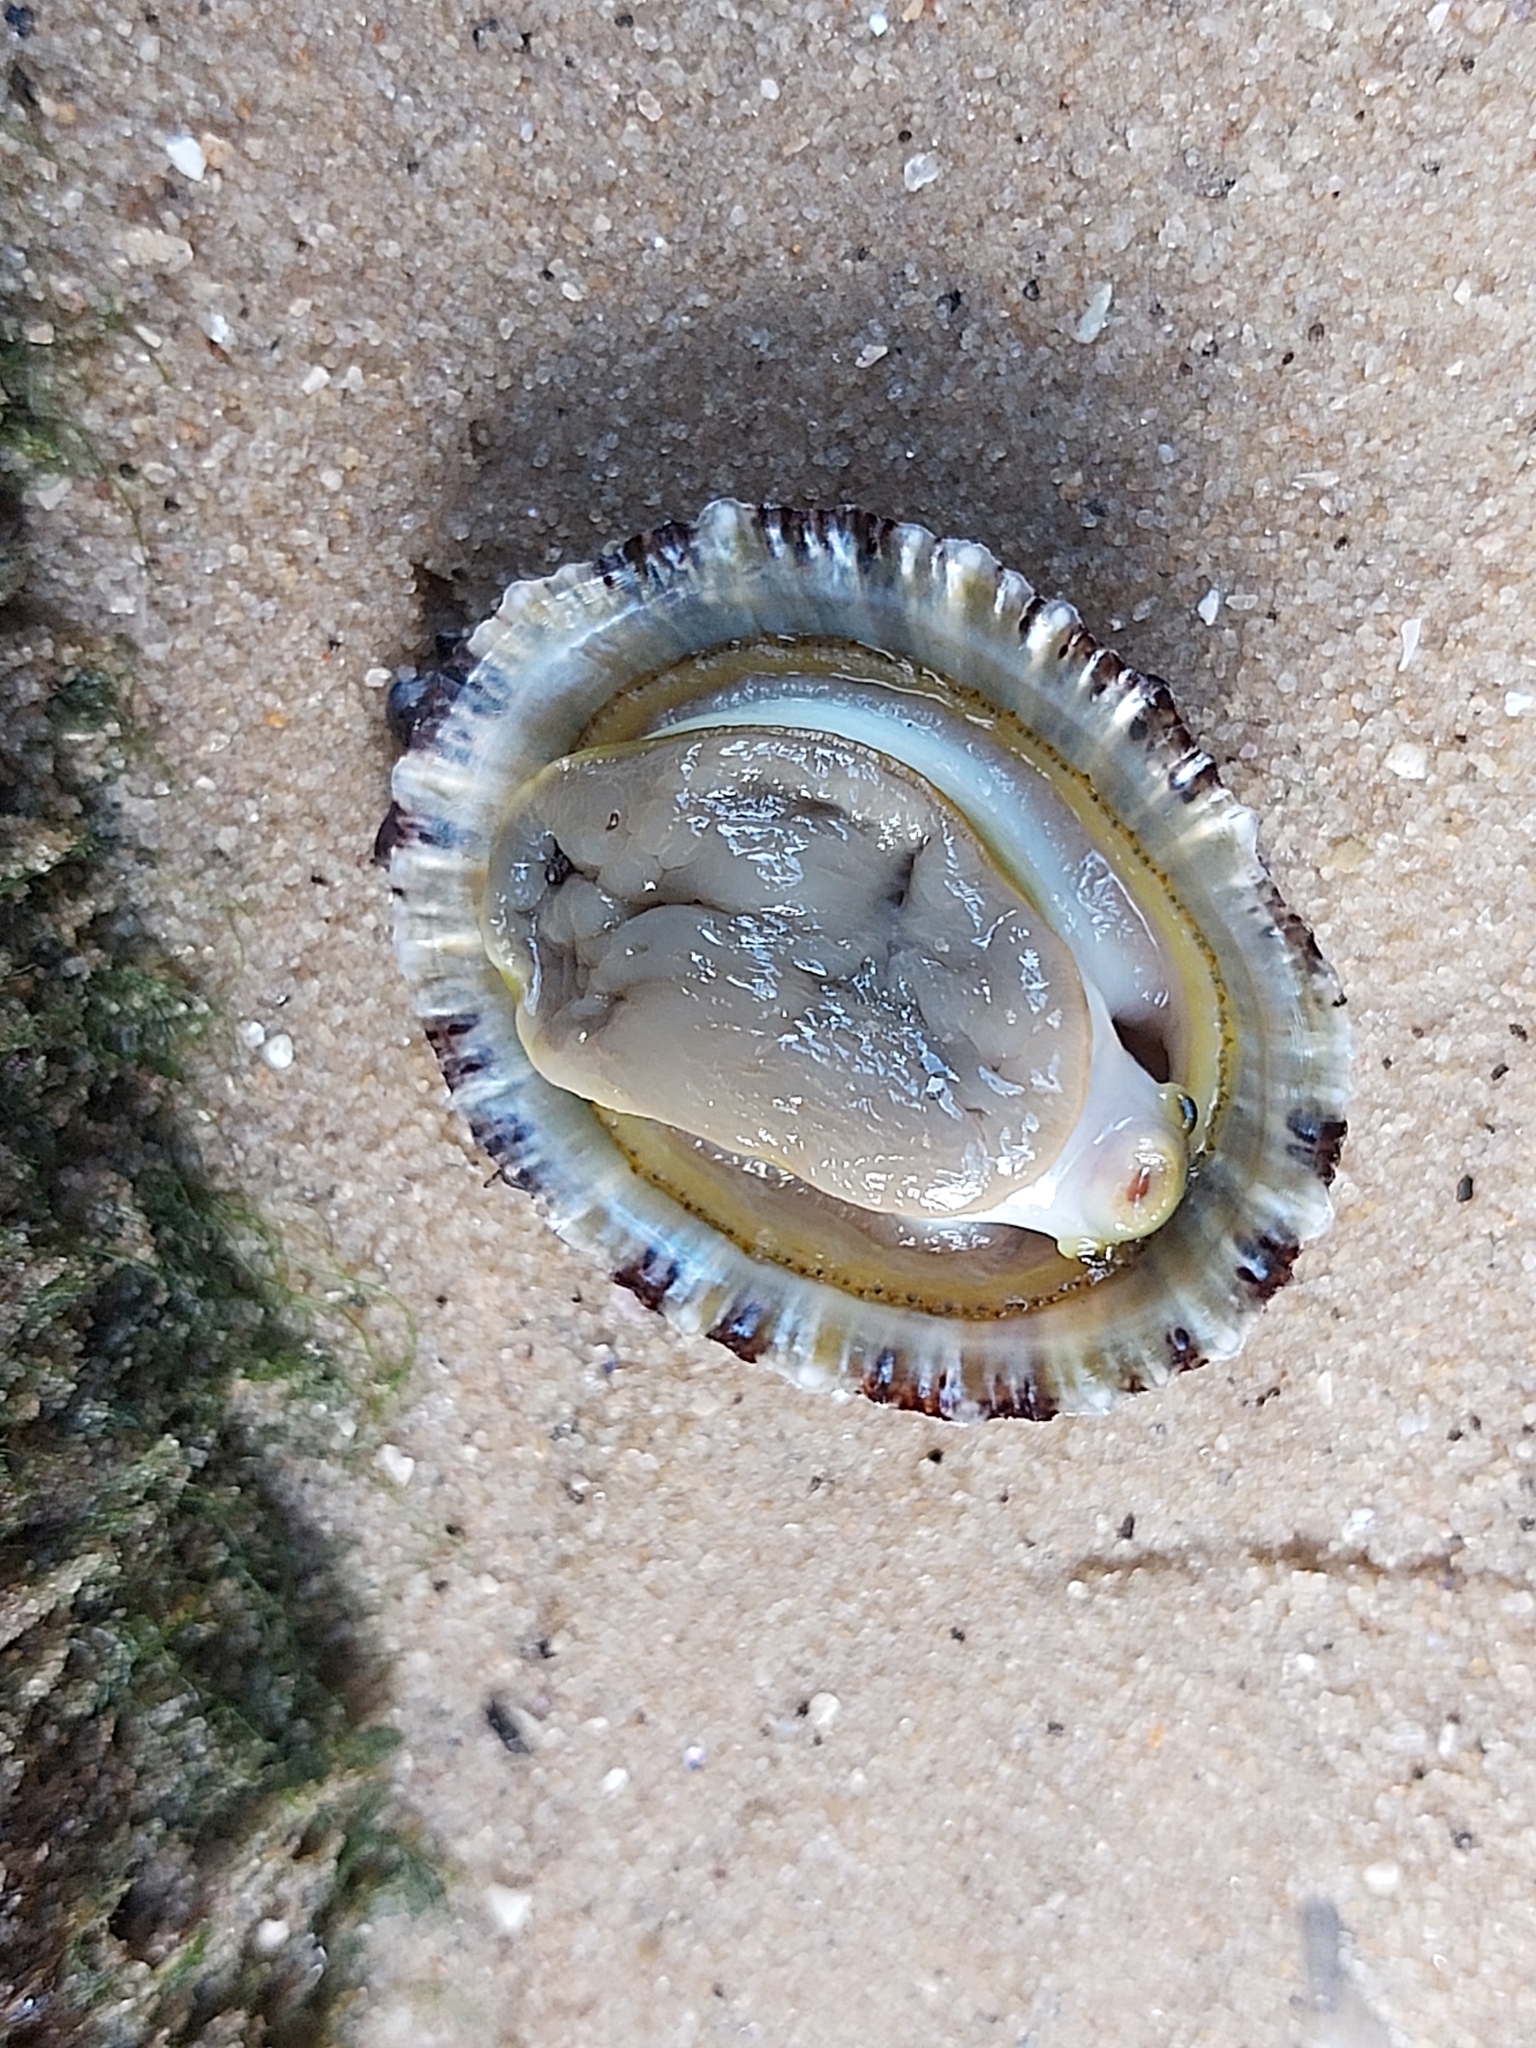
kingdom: Animalia
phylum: Mollusca
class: Gastropoda
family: Nacellidae
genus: Cellana
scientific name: Cellana tramoserica
